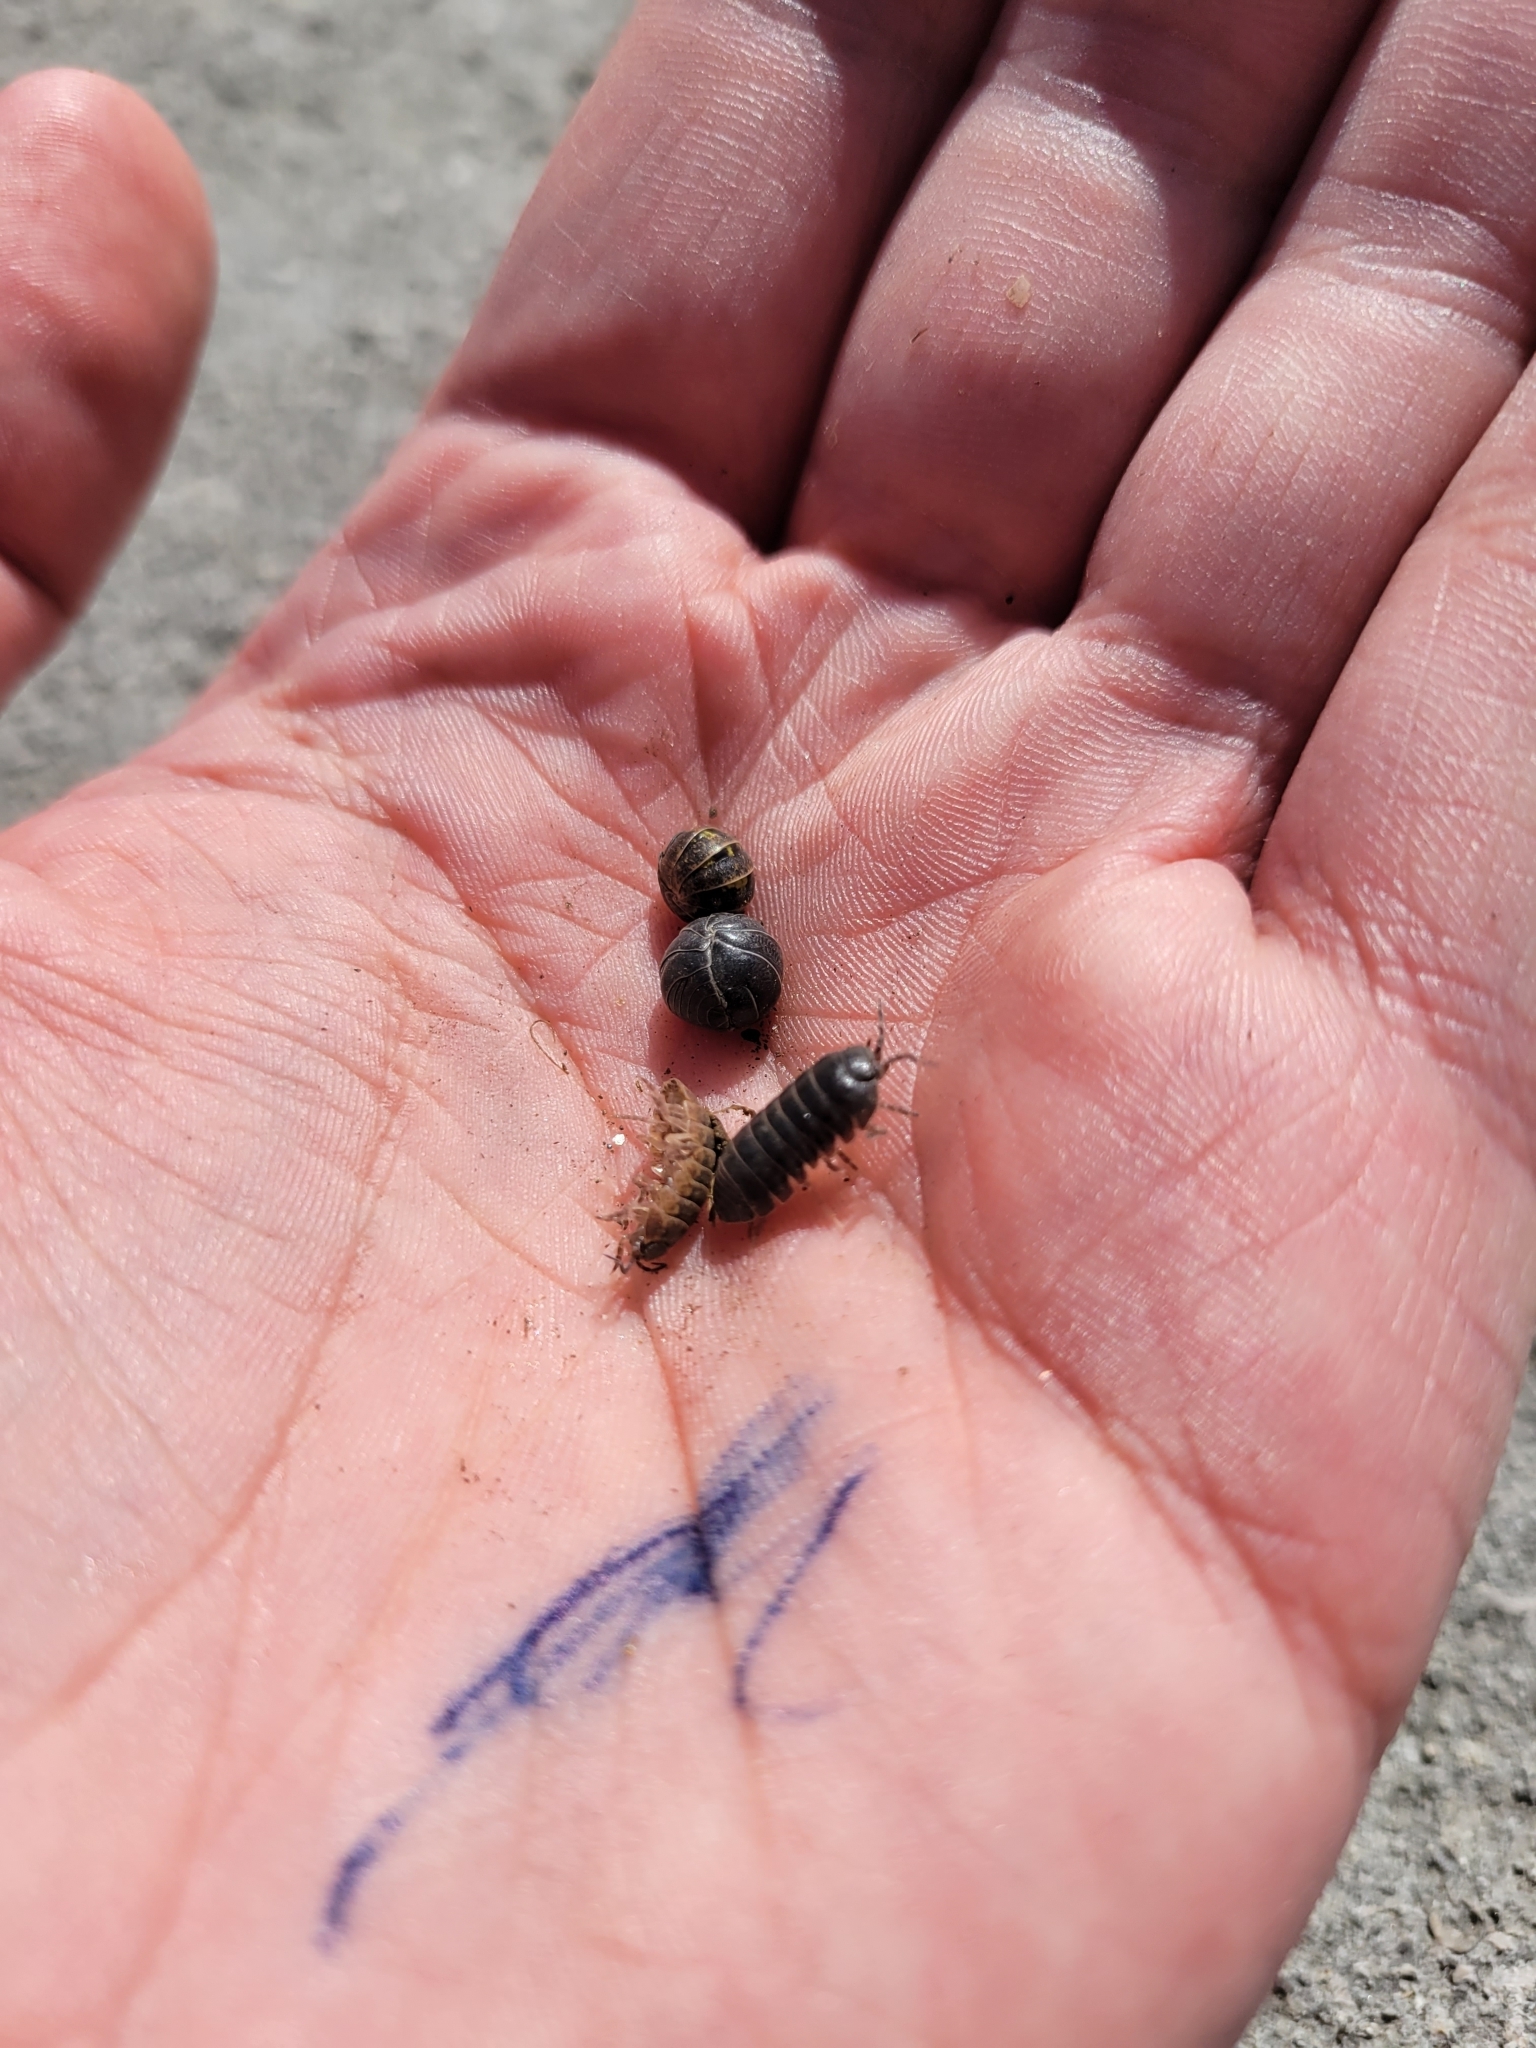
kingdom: Animalia
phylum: Arthropoda
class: Malacostraca
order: Isopoda
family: Armadillidiidae
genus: Armadillidium
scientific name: Armadillidium vulgare
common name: Common pill woodlouse
